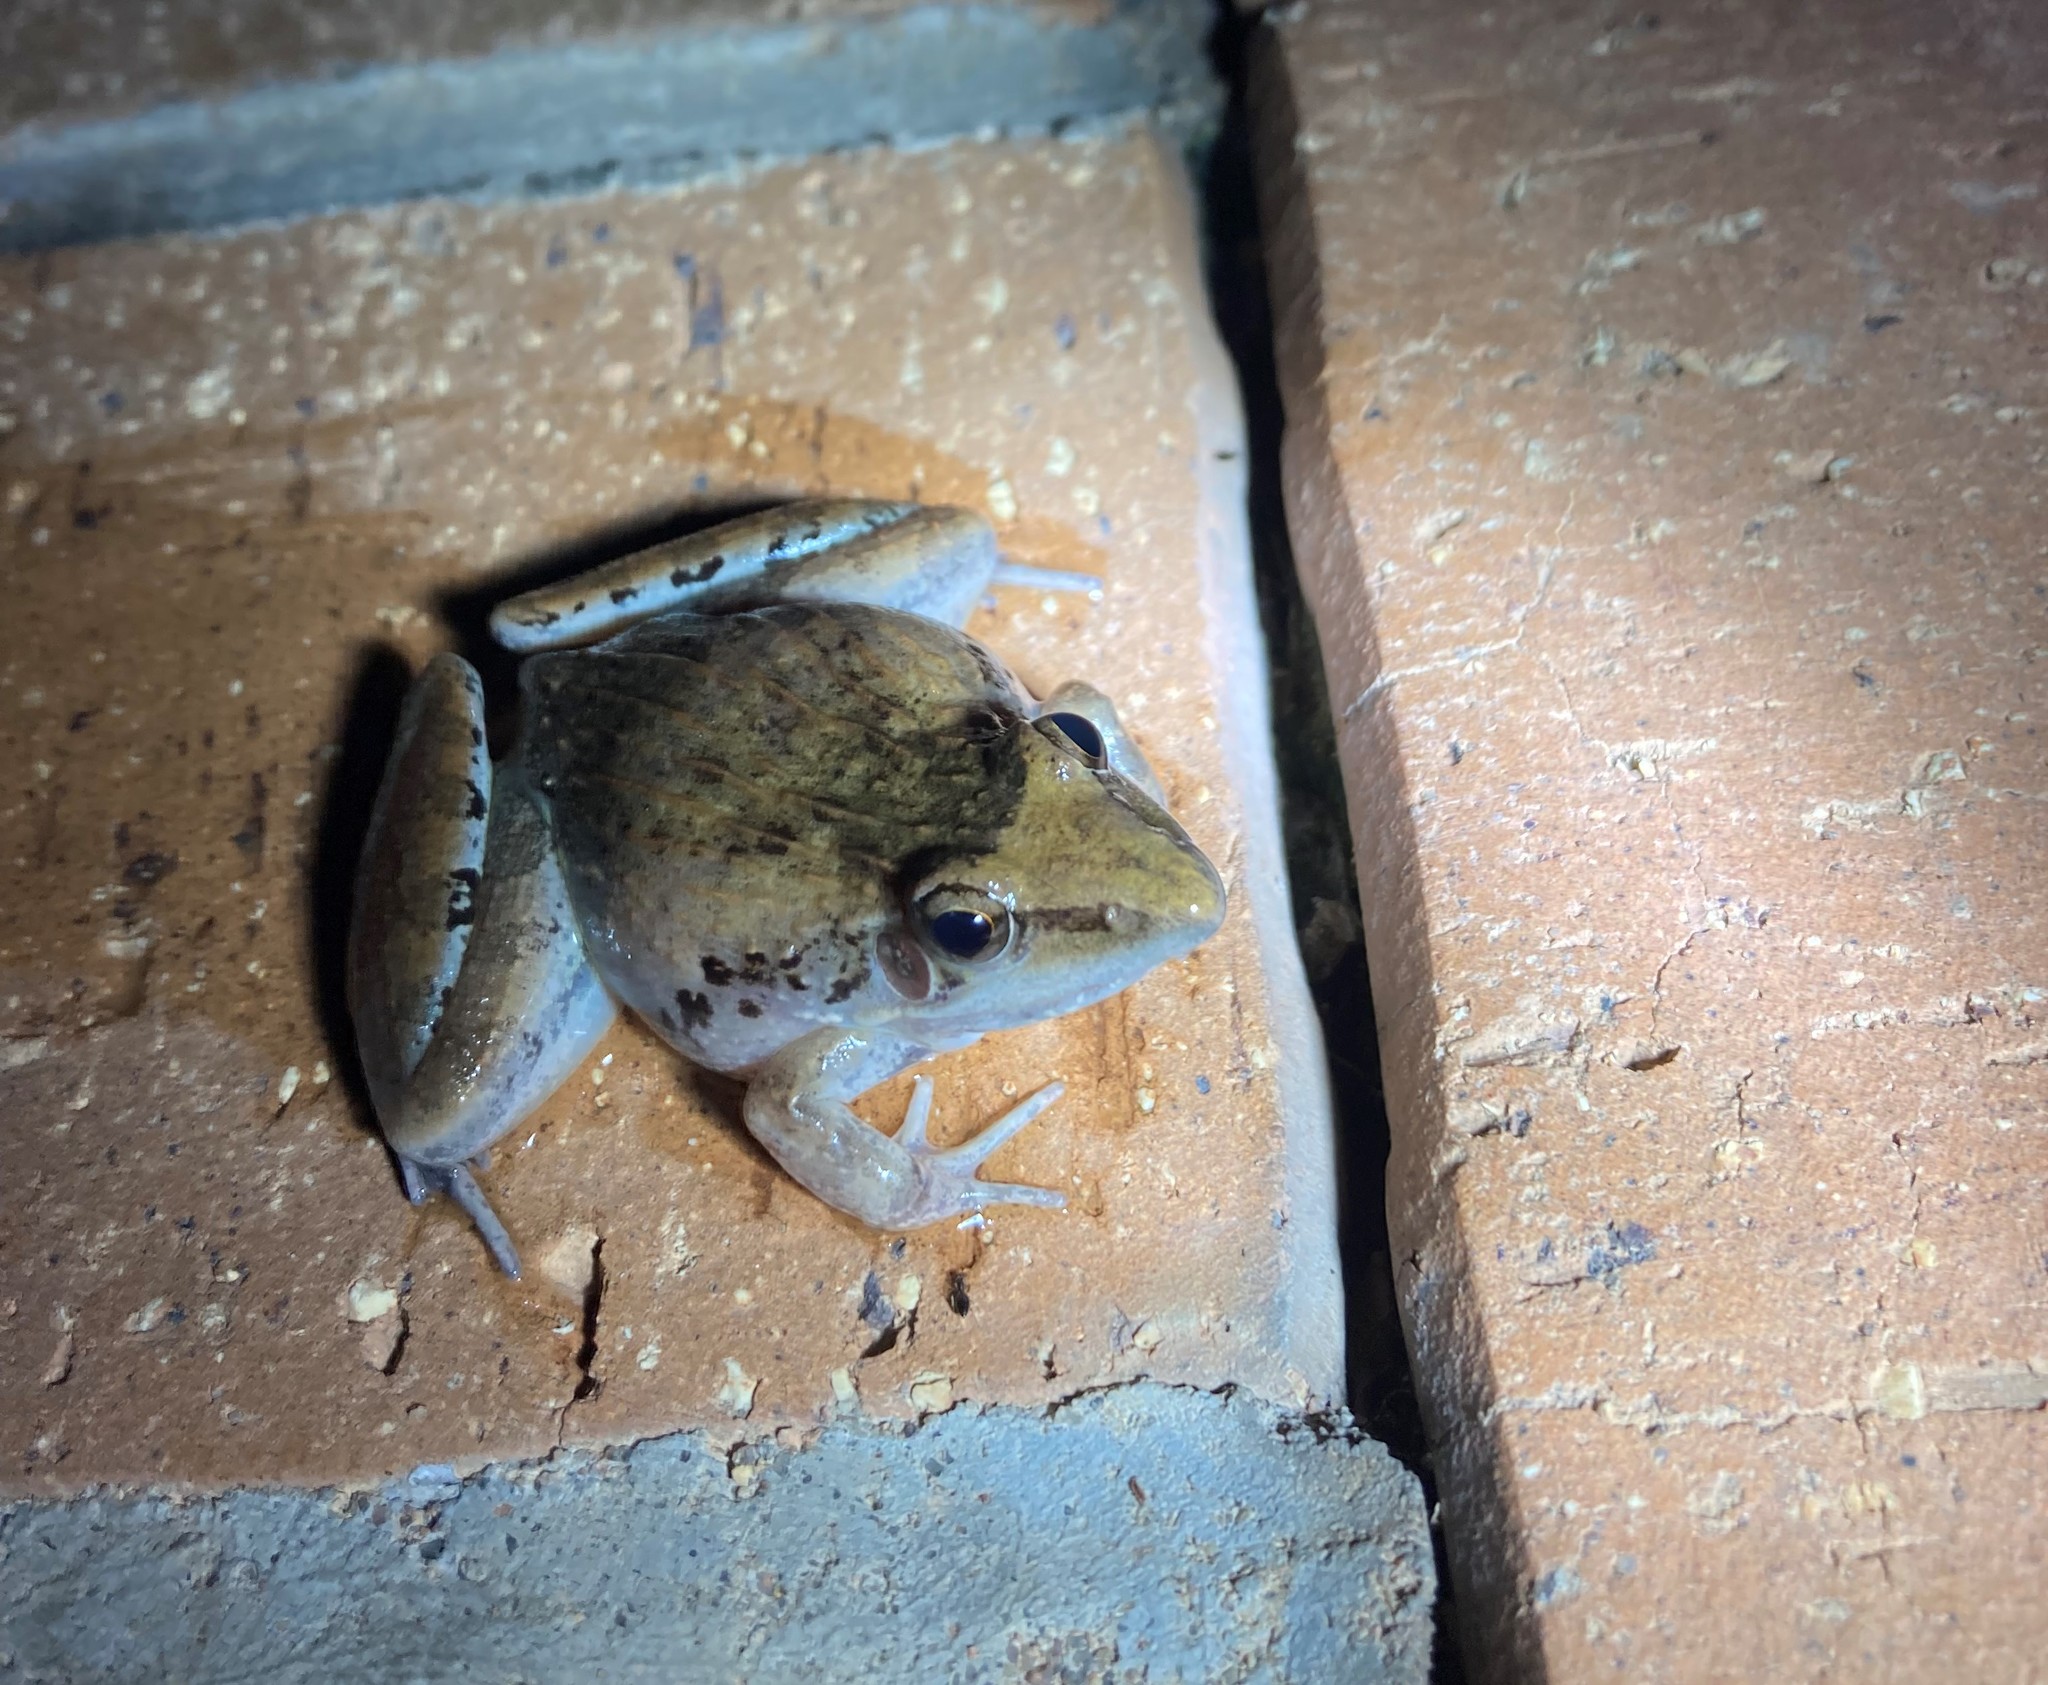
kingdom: Animalia
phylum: Chordata
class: Amphibia
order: Anura
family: Ptychadenidae
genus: Ptychadena
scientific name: Ptychadena anchietae
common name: Anchieta's ridged frog
